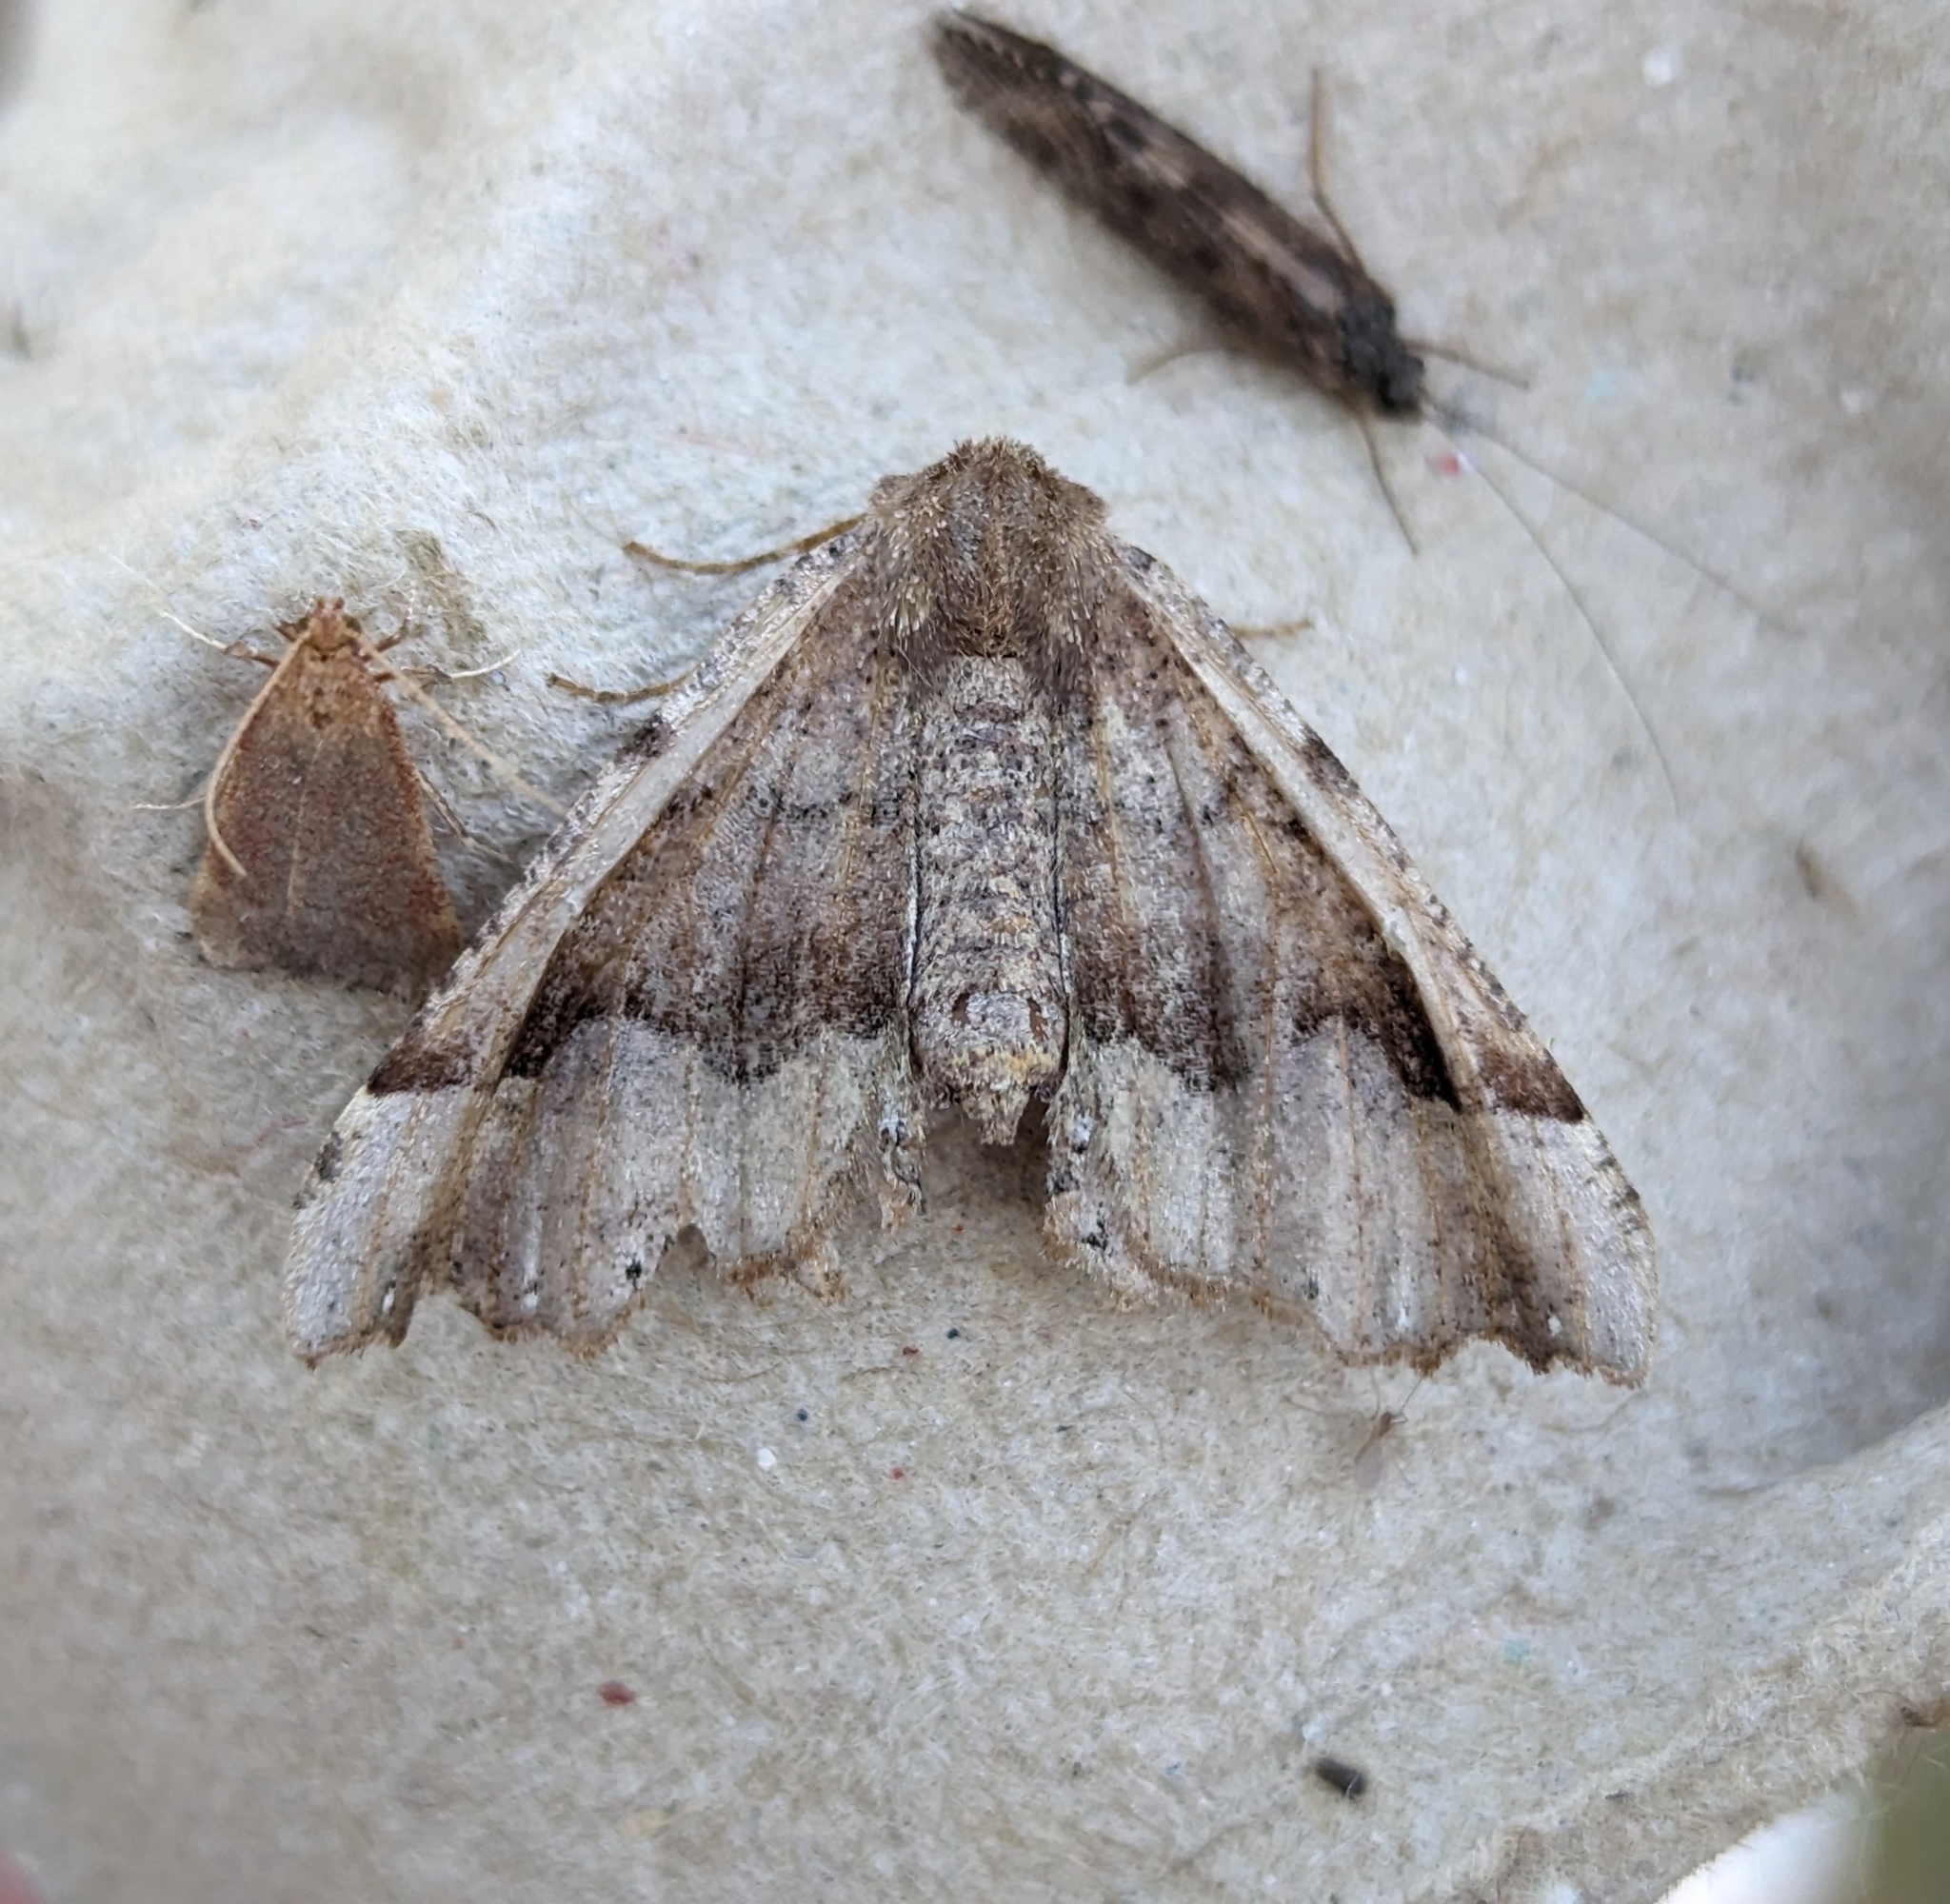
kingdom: Animalia
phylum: Arthropoda
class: Insecta
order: Lepidoptera
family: Geometridae
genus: Pero
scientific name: Pero mizon
